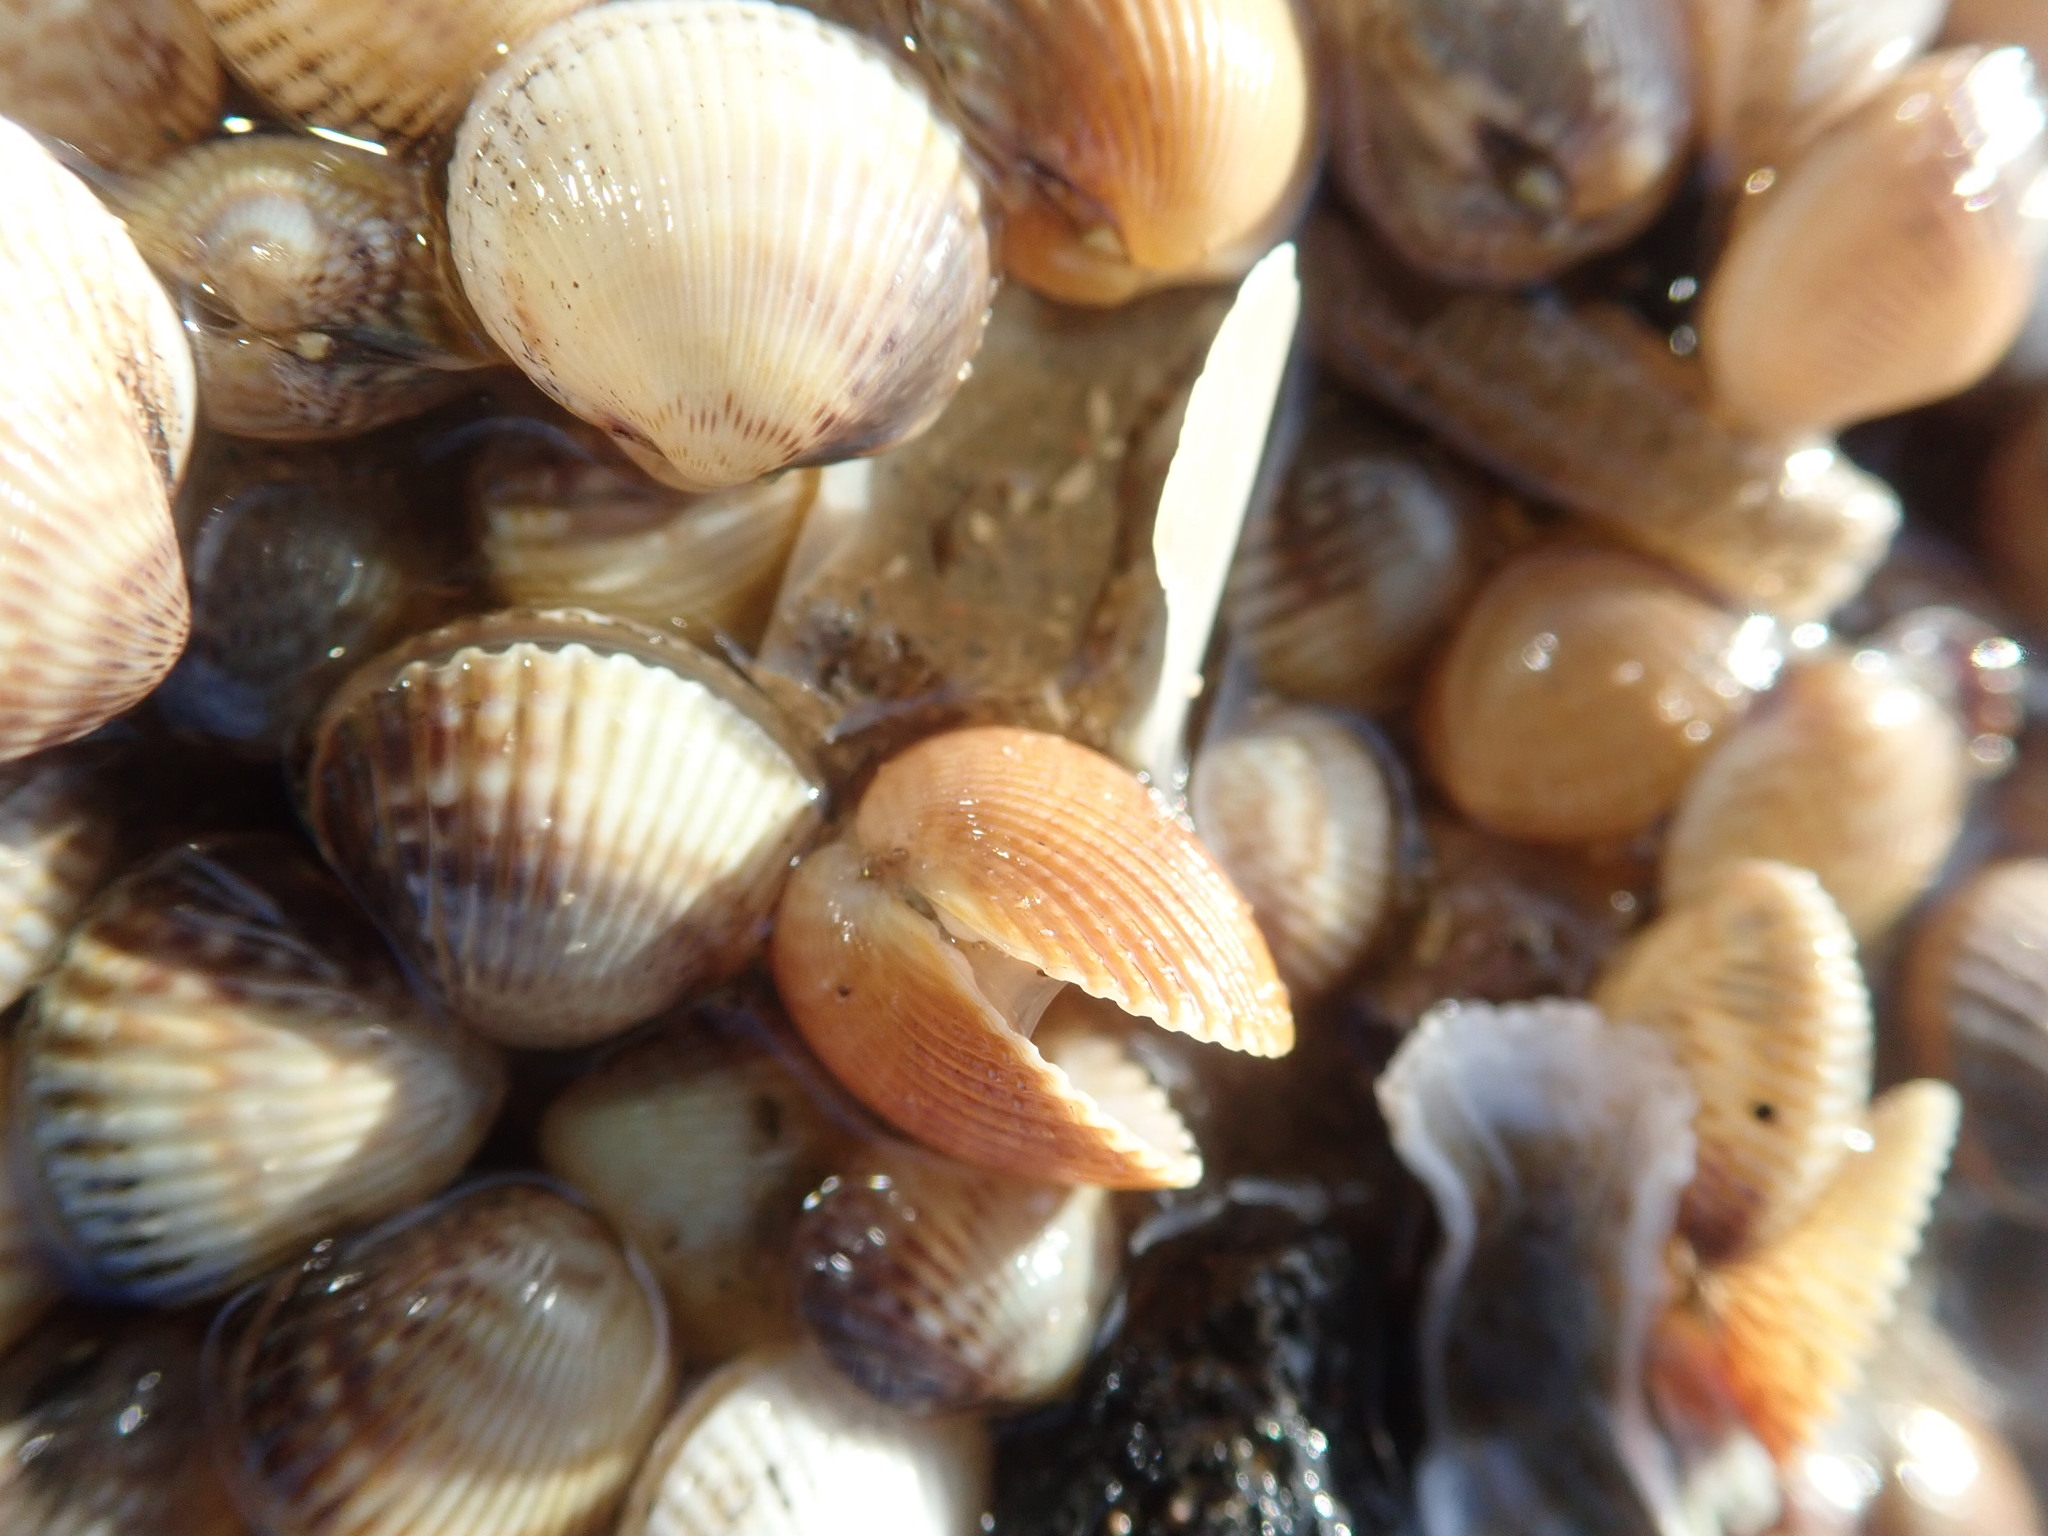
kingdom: Animalia
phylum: Mollusca
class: Bivalvia
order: Cardiida
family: Cardiidae
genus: Cerastoderma
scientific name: Cerastoderma edule
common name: Common cockle
